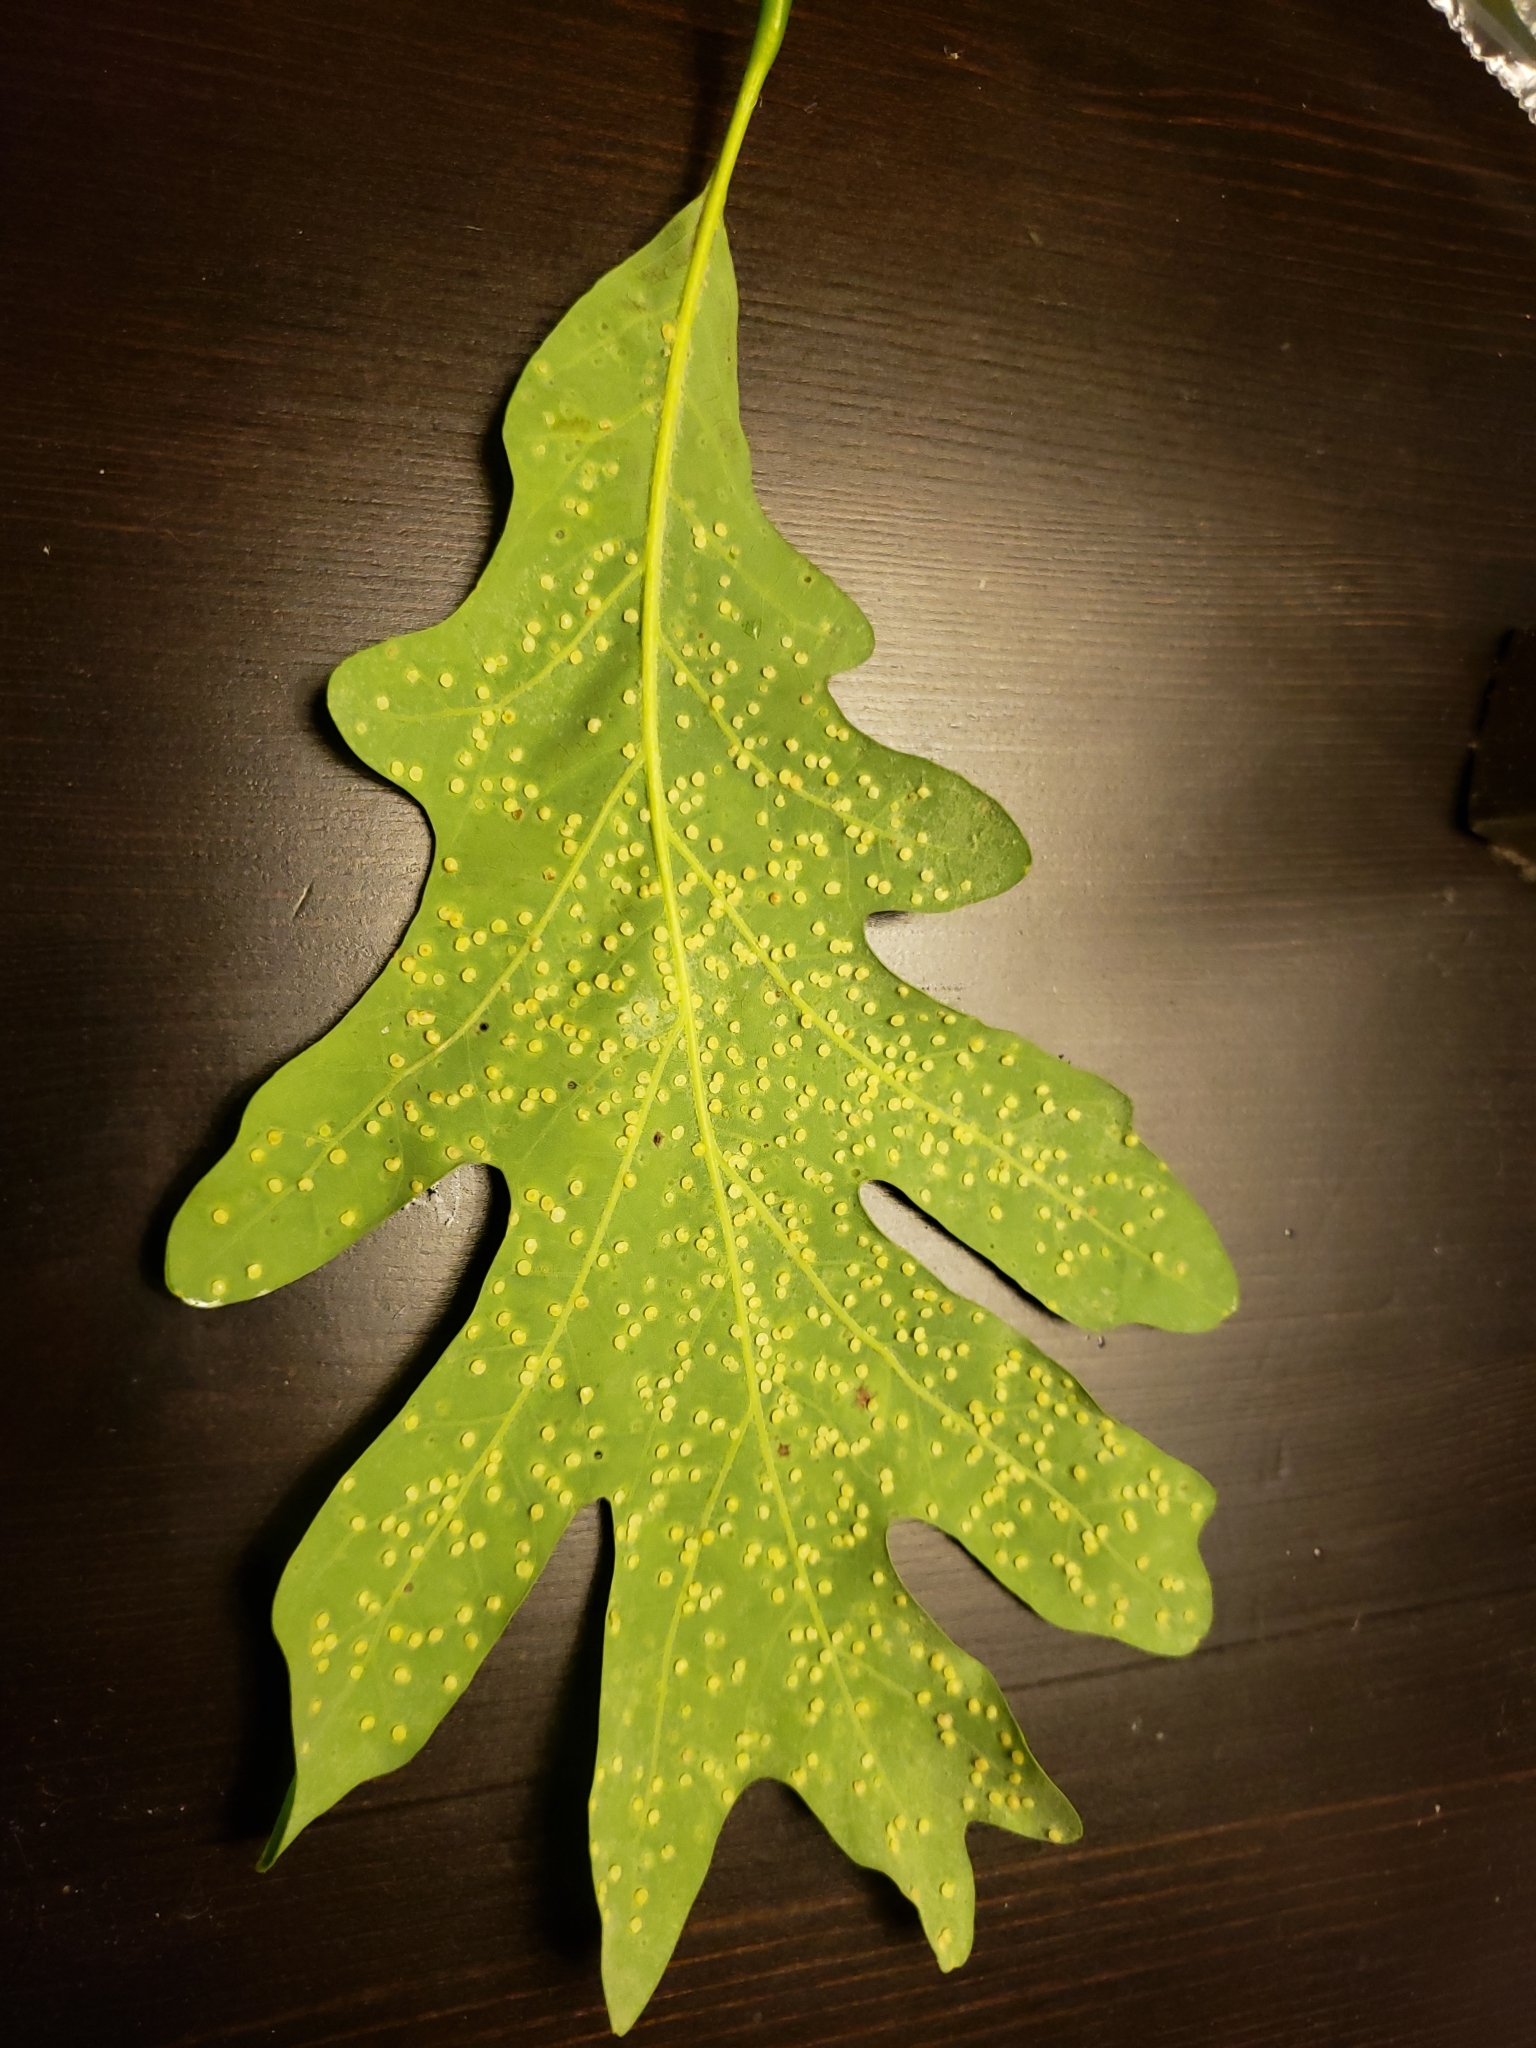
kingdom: Animalia
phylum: Arthropoda
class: Insecta
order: Hymenoptera
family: Cynipidae
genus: Neuroterus
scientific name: Neuroterus
